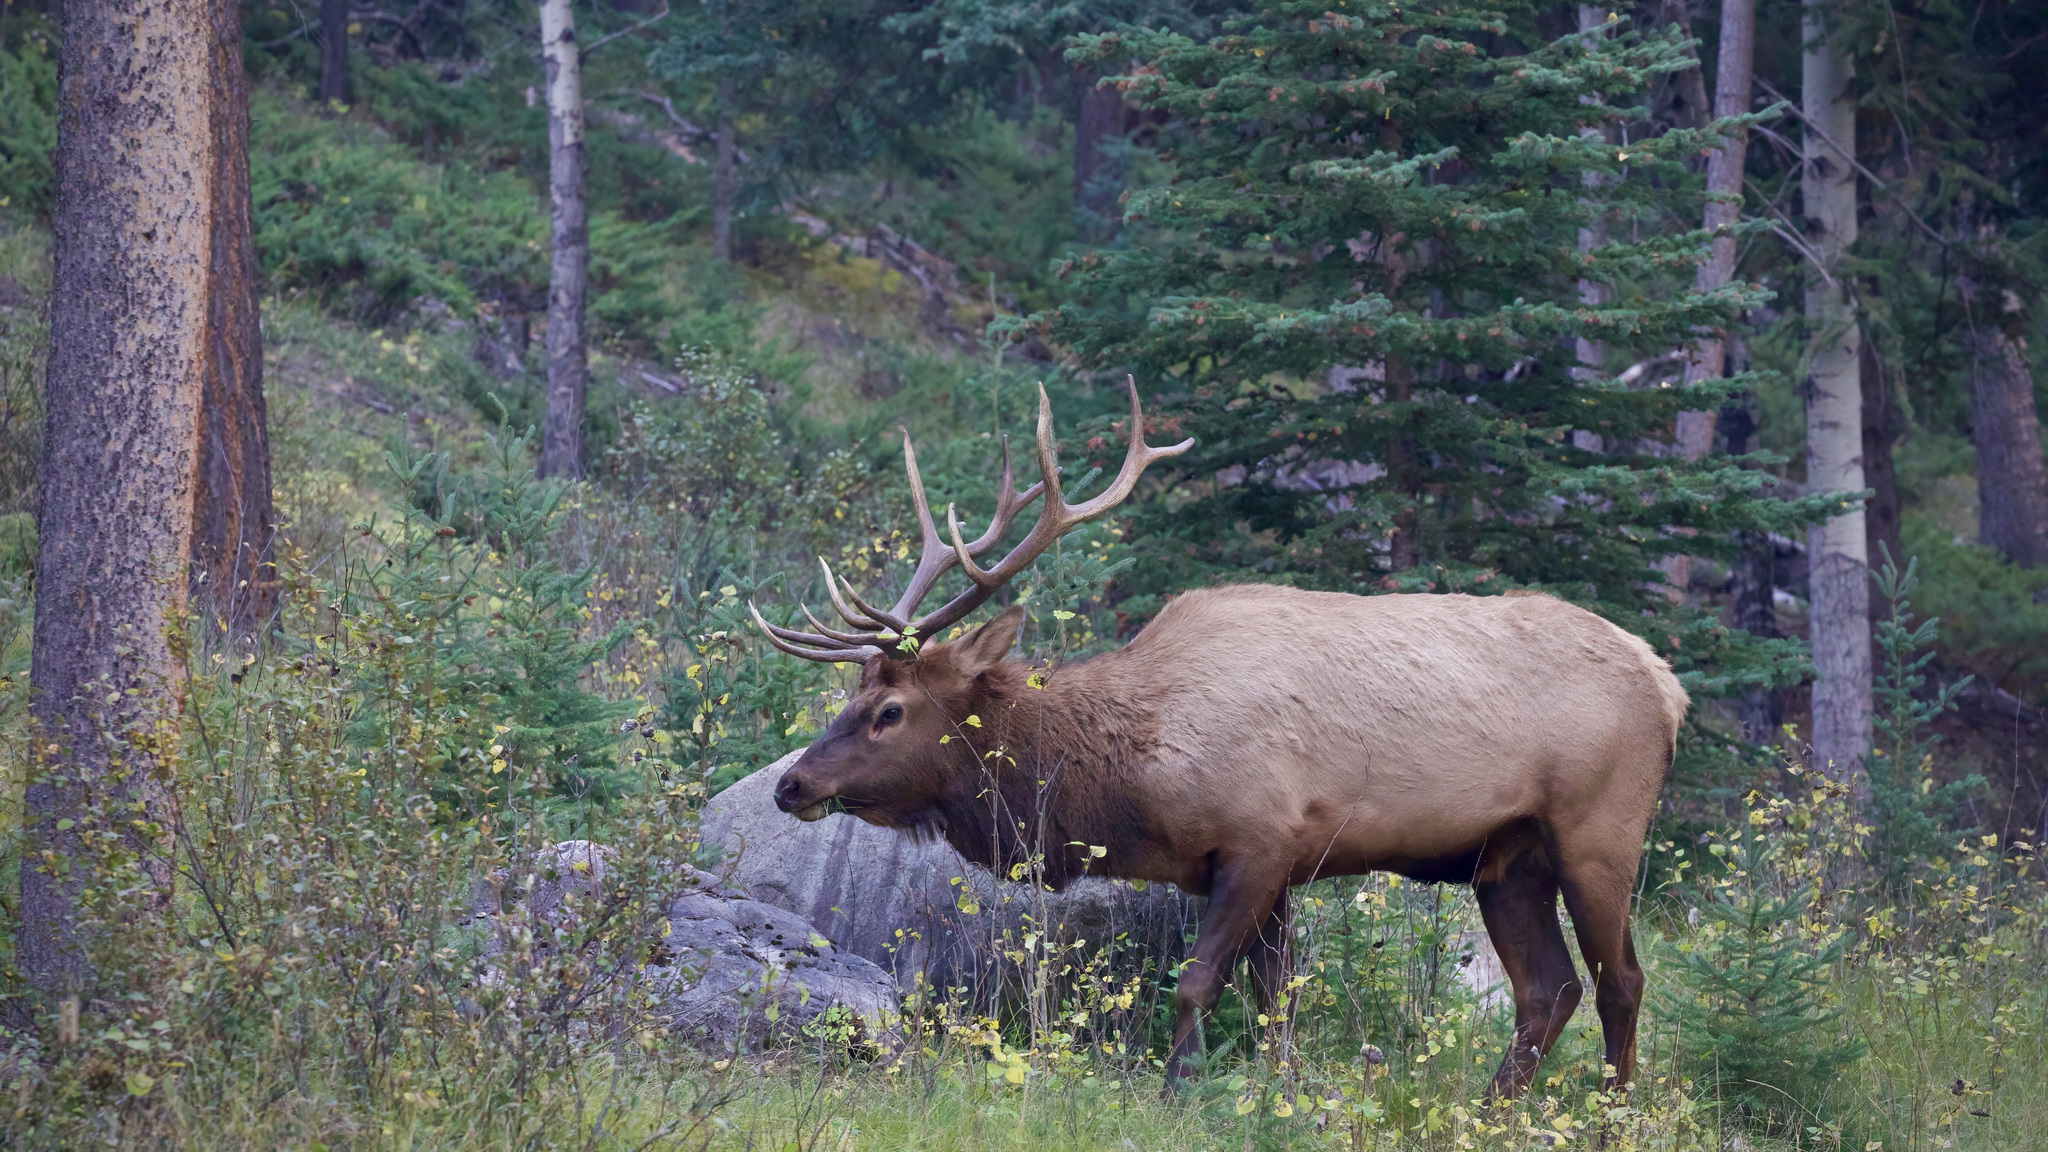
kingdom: Animalia
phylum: Chordata
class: Mammalia
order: Artiodactyla
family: Cervidae
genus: Cervus
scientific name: Cervus elaphus
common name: Red deer
